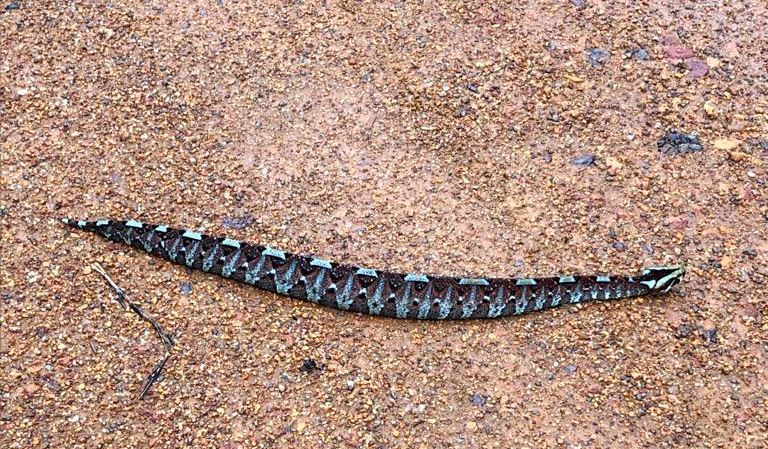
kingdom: Animalia
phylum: Chordata
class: Squamata
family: Viperidae
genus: Bitis
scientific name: Bitis nasicornis
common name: Rhinoceros viper
